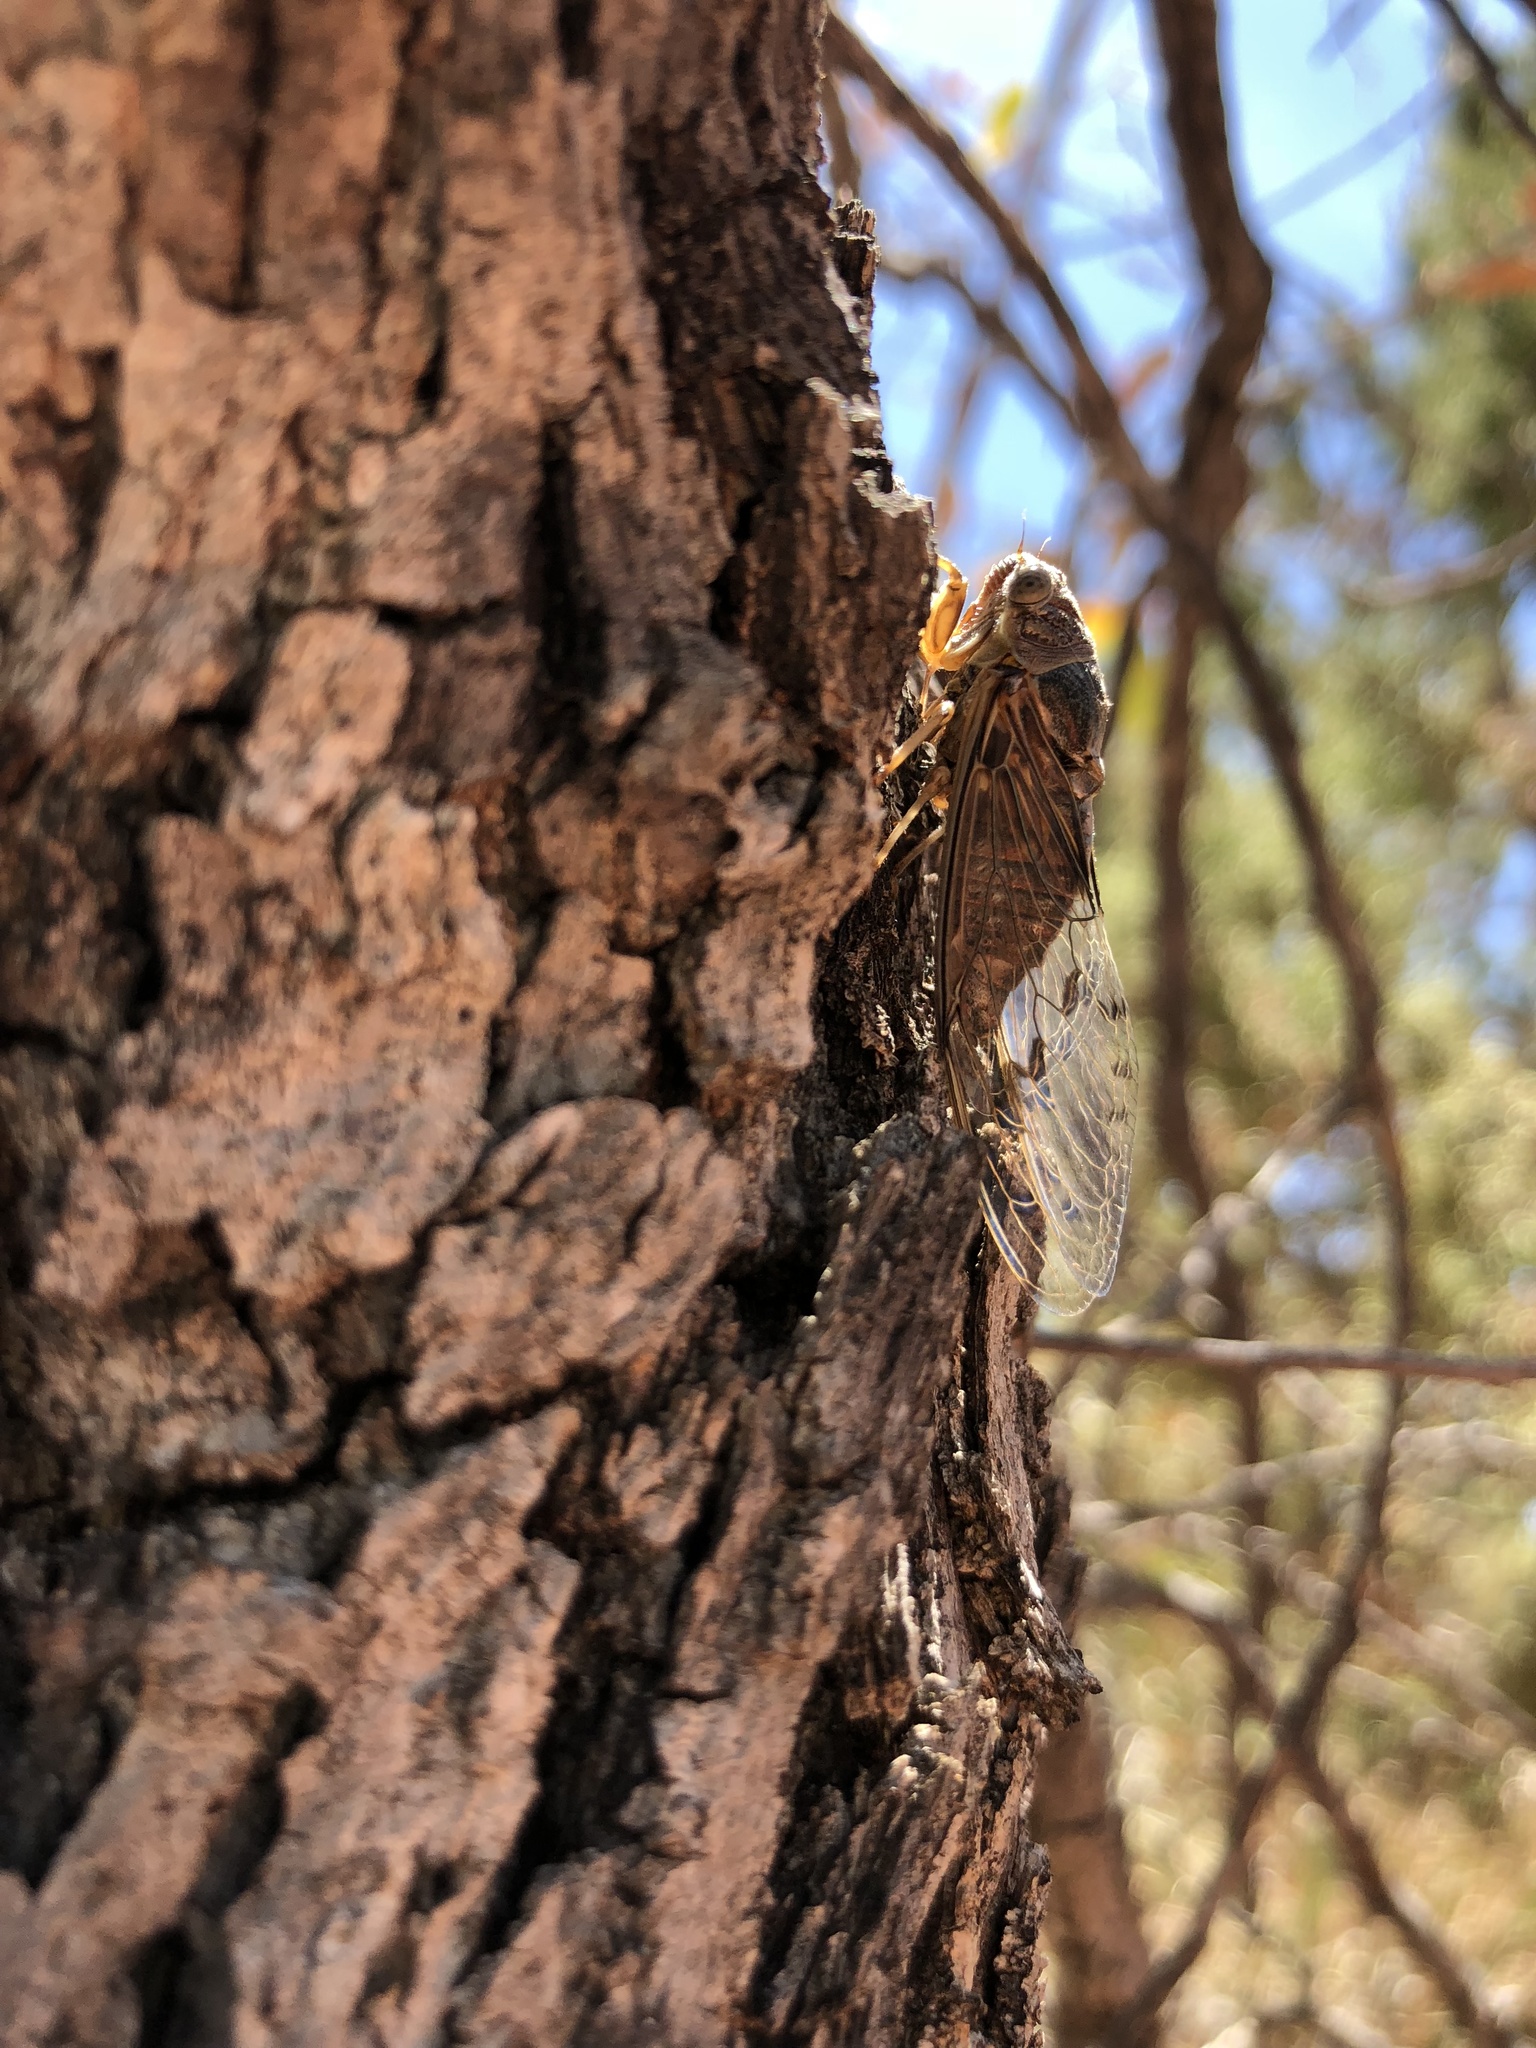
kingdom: Animalia
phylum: Arthropoda
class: Insecta
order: Hemiptera
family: Cicadidae
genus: Diceroprocta
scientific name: Diceroprocta swalei
